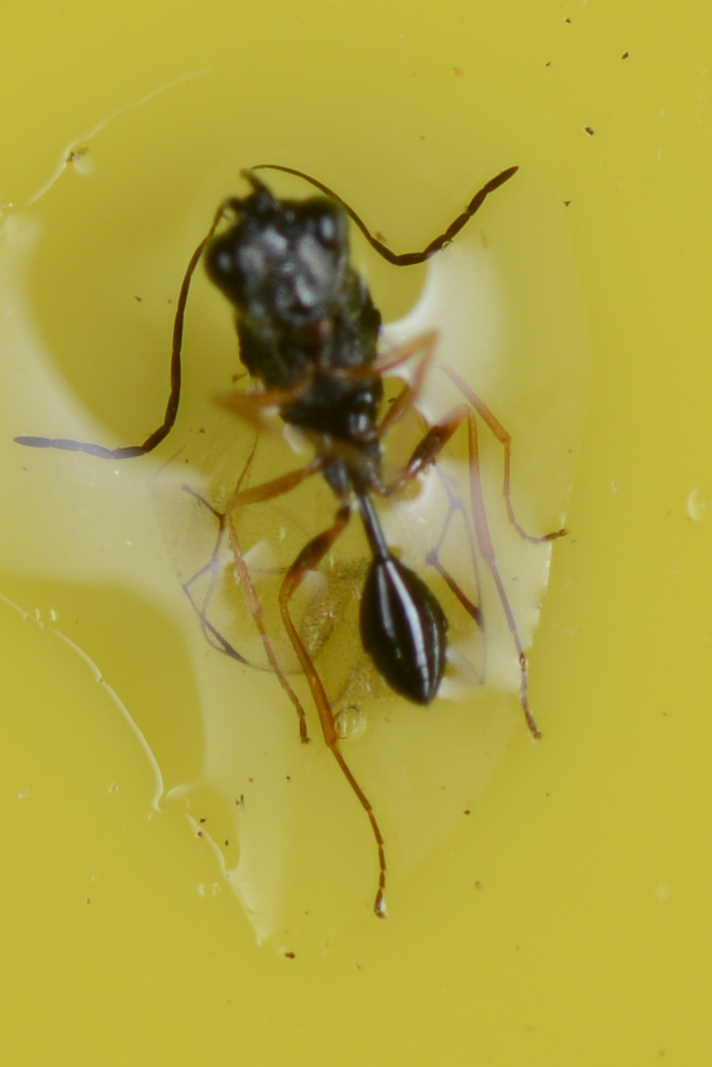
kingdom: Animalia
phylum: Arthropoda
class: Insecta
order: Hymenoptera
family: Figitidae
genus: Anacharis
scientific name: Anacharis zealandica
